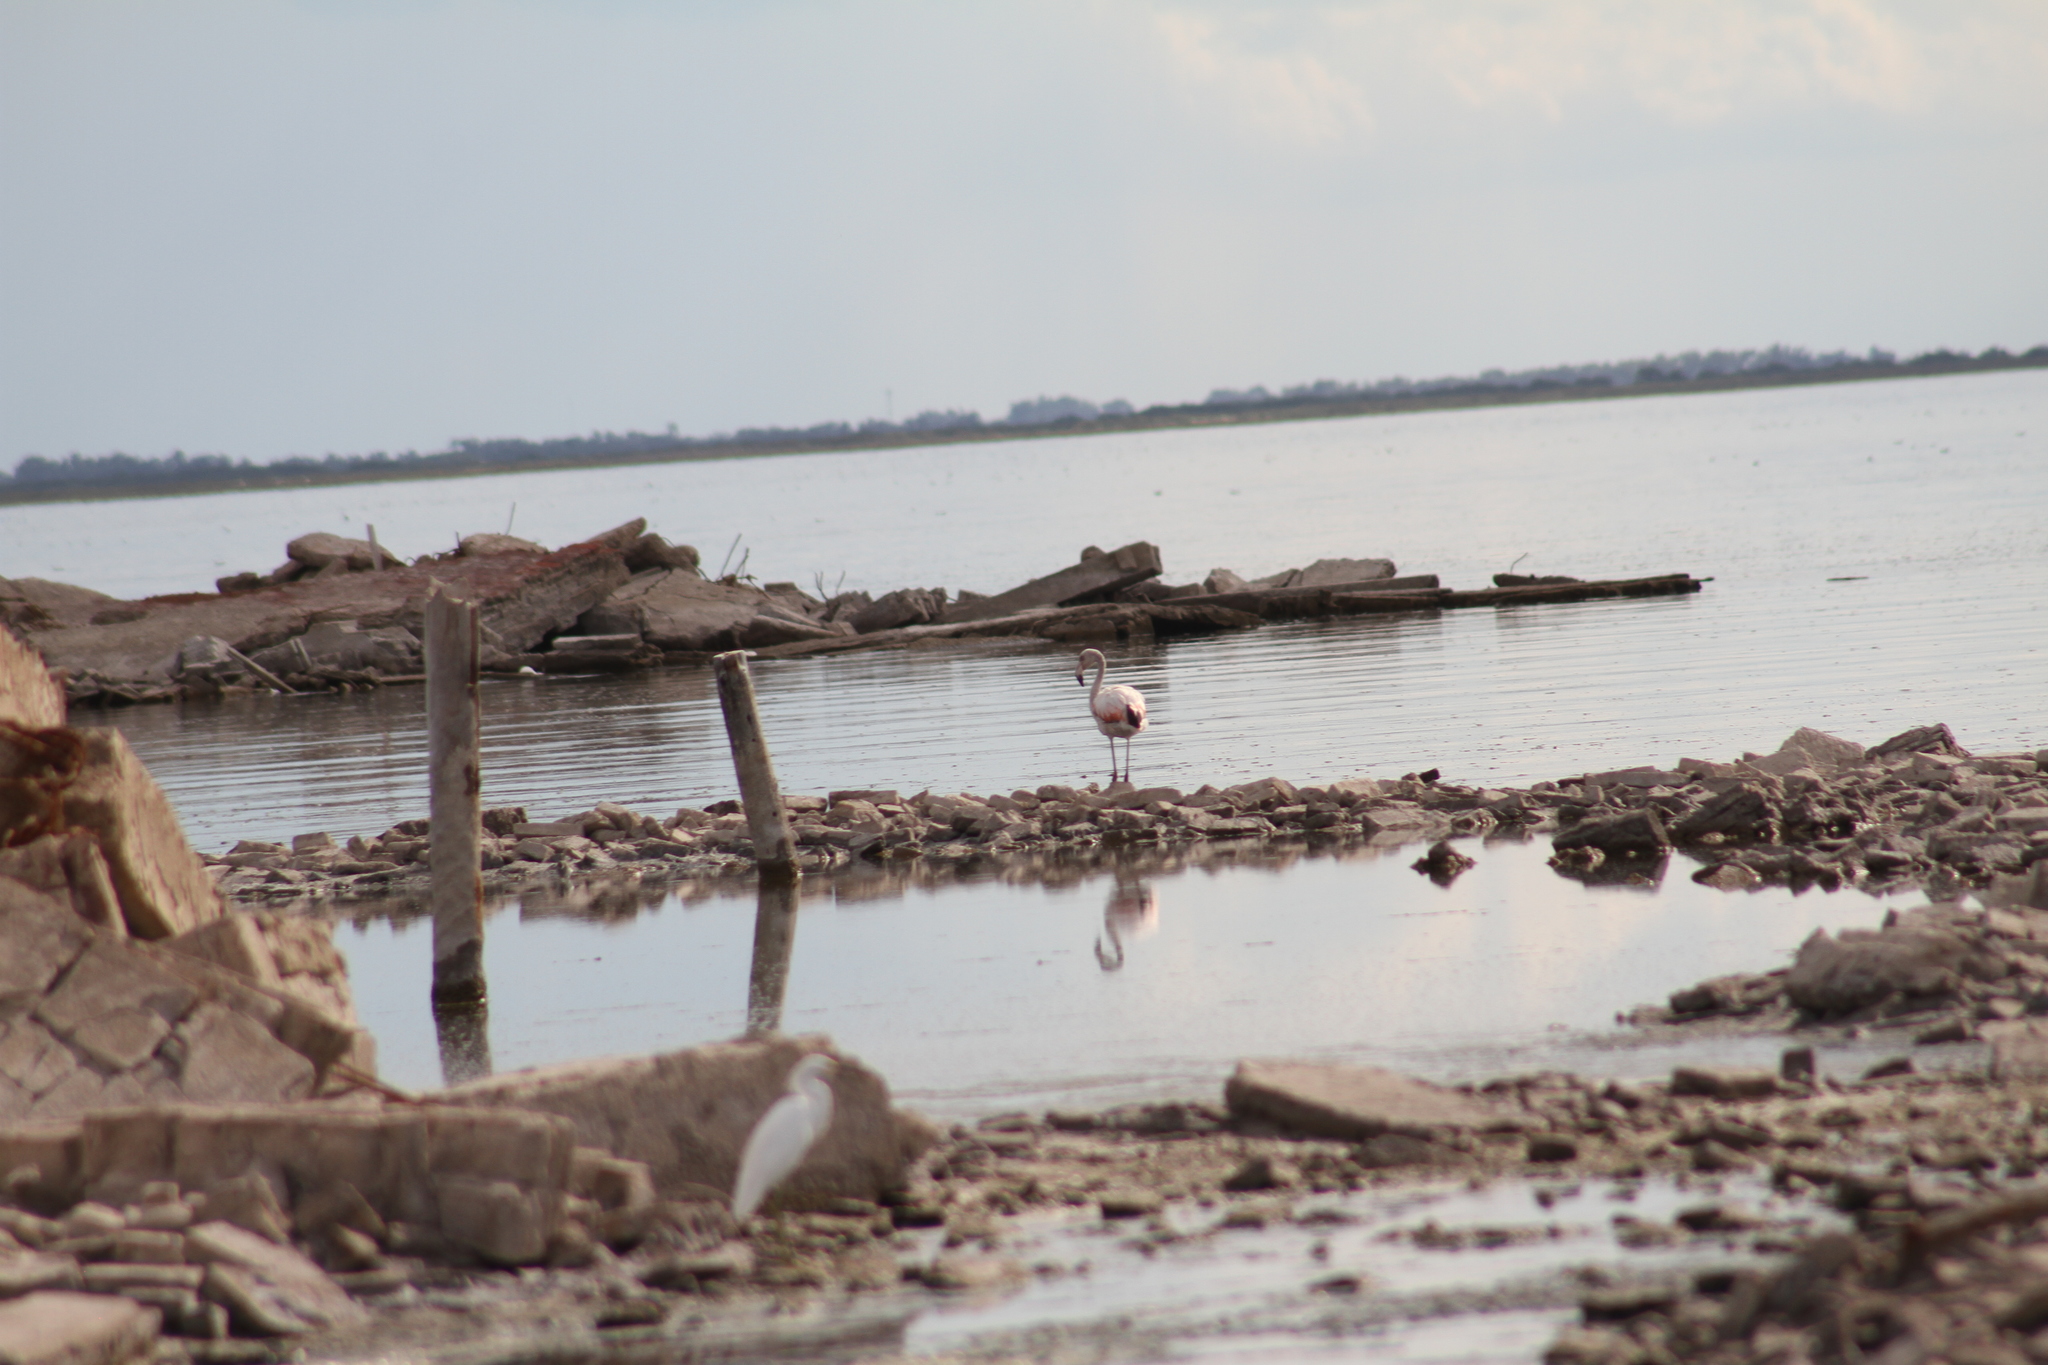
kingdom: Animalia
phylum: Chordata
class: Aves
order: Phoenicopteriformes
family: Phoenicopteridae
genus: Phoenicopterus
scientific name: Phoenicopterus chilensis
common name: Chilean flamingo
